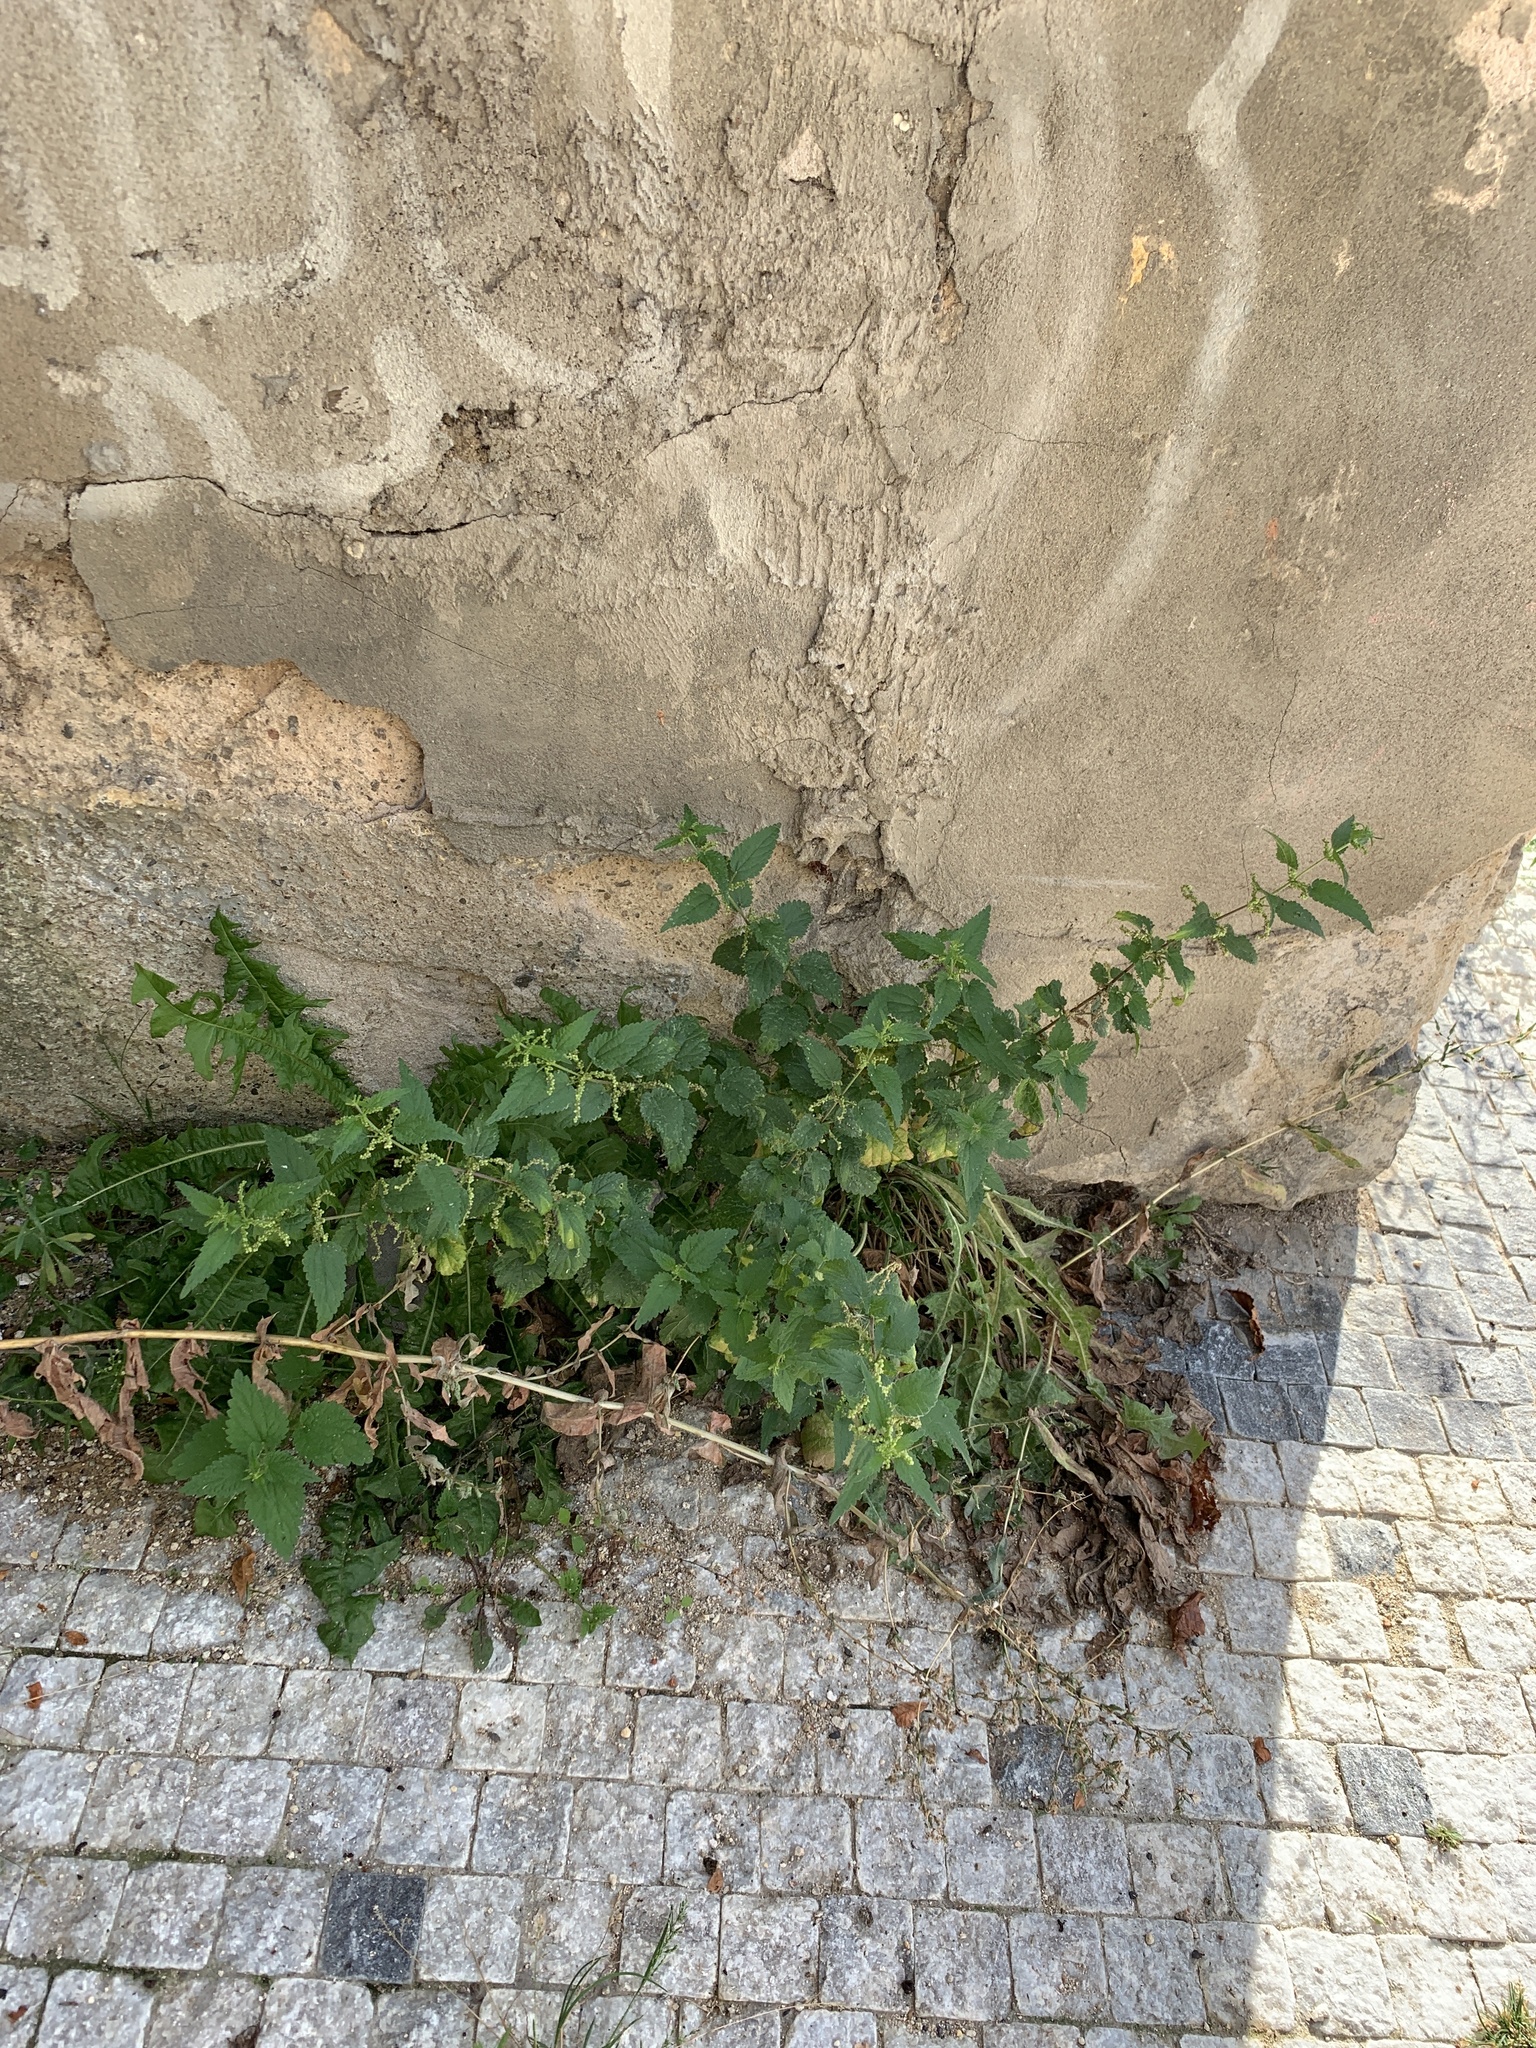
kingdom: Plantae
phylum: Tracheophyta
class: Magnoliopsida
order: Rosales
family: Urticaceae
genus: Urtica
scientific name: Urtica dioica
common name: Common nettle
